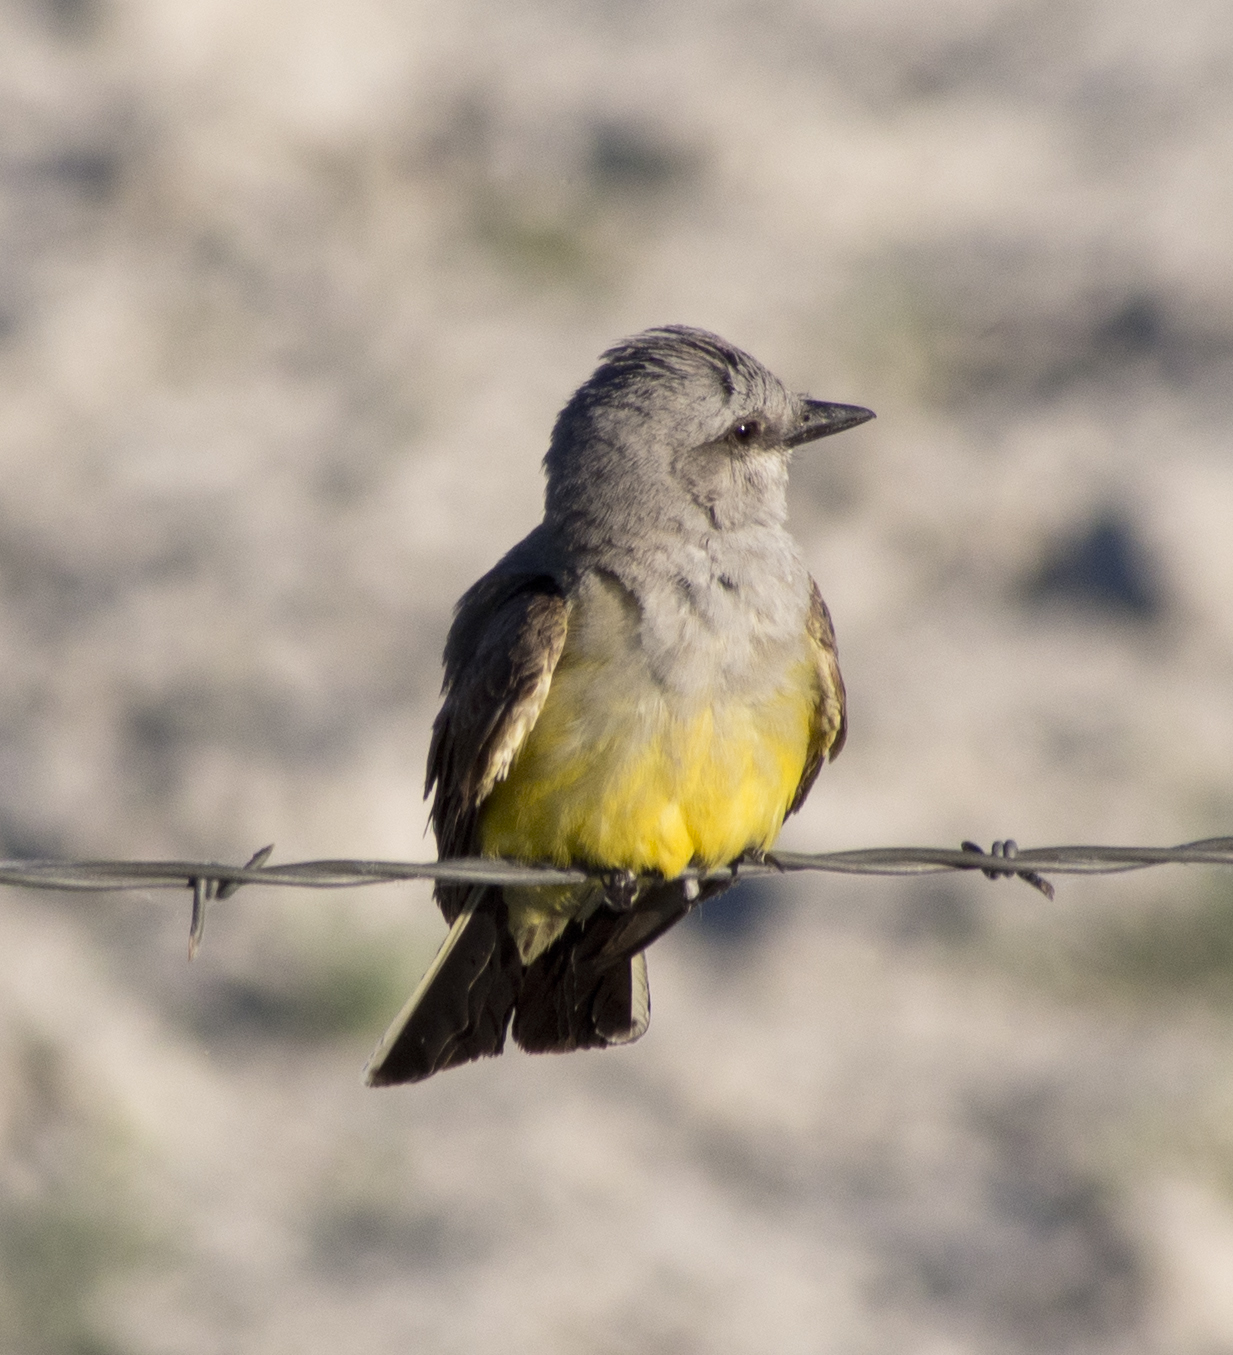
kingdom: Animalia
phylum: Chordata
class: Aves
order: Passeriformes
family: Tyrannidae
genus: Tyrannus
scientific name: Tyrannus verticalis
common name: Western kingbird
